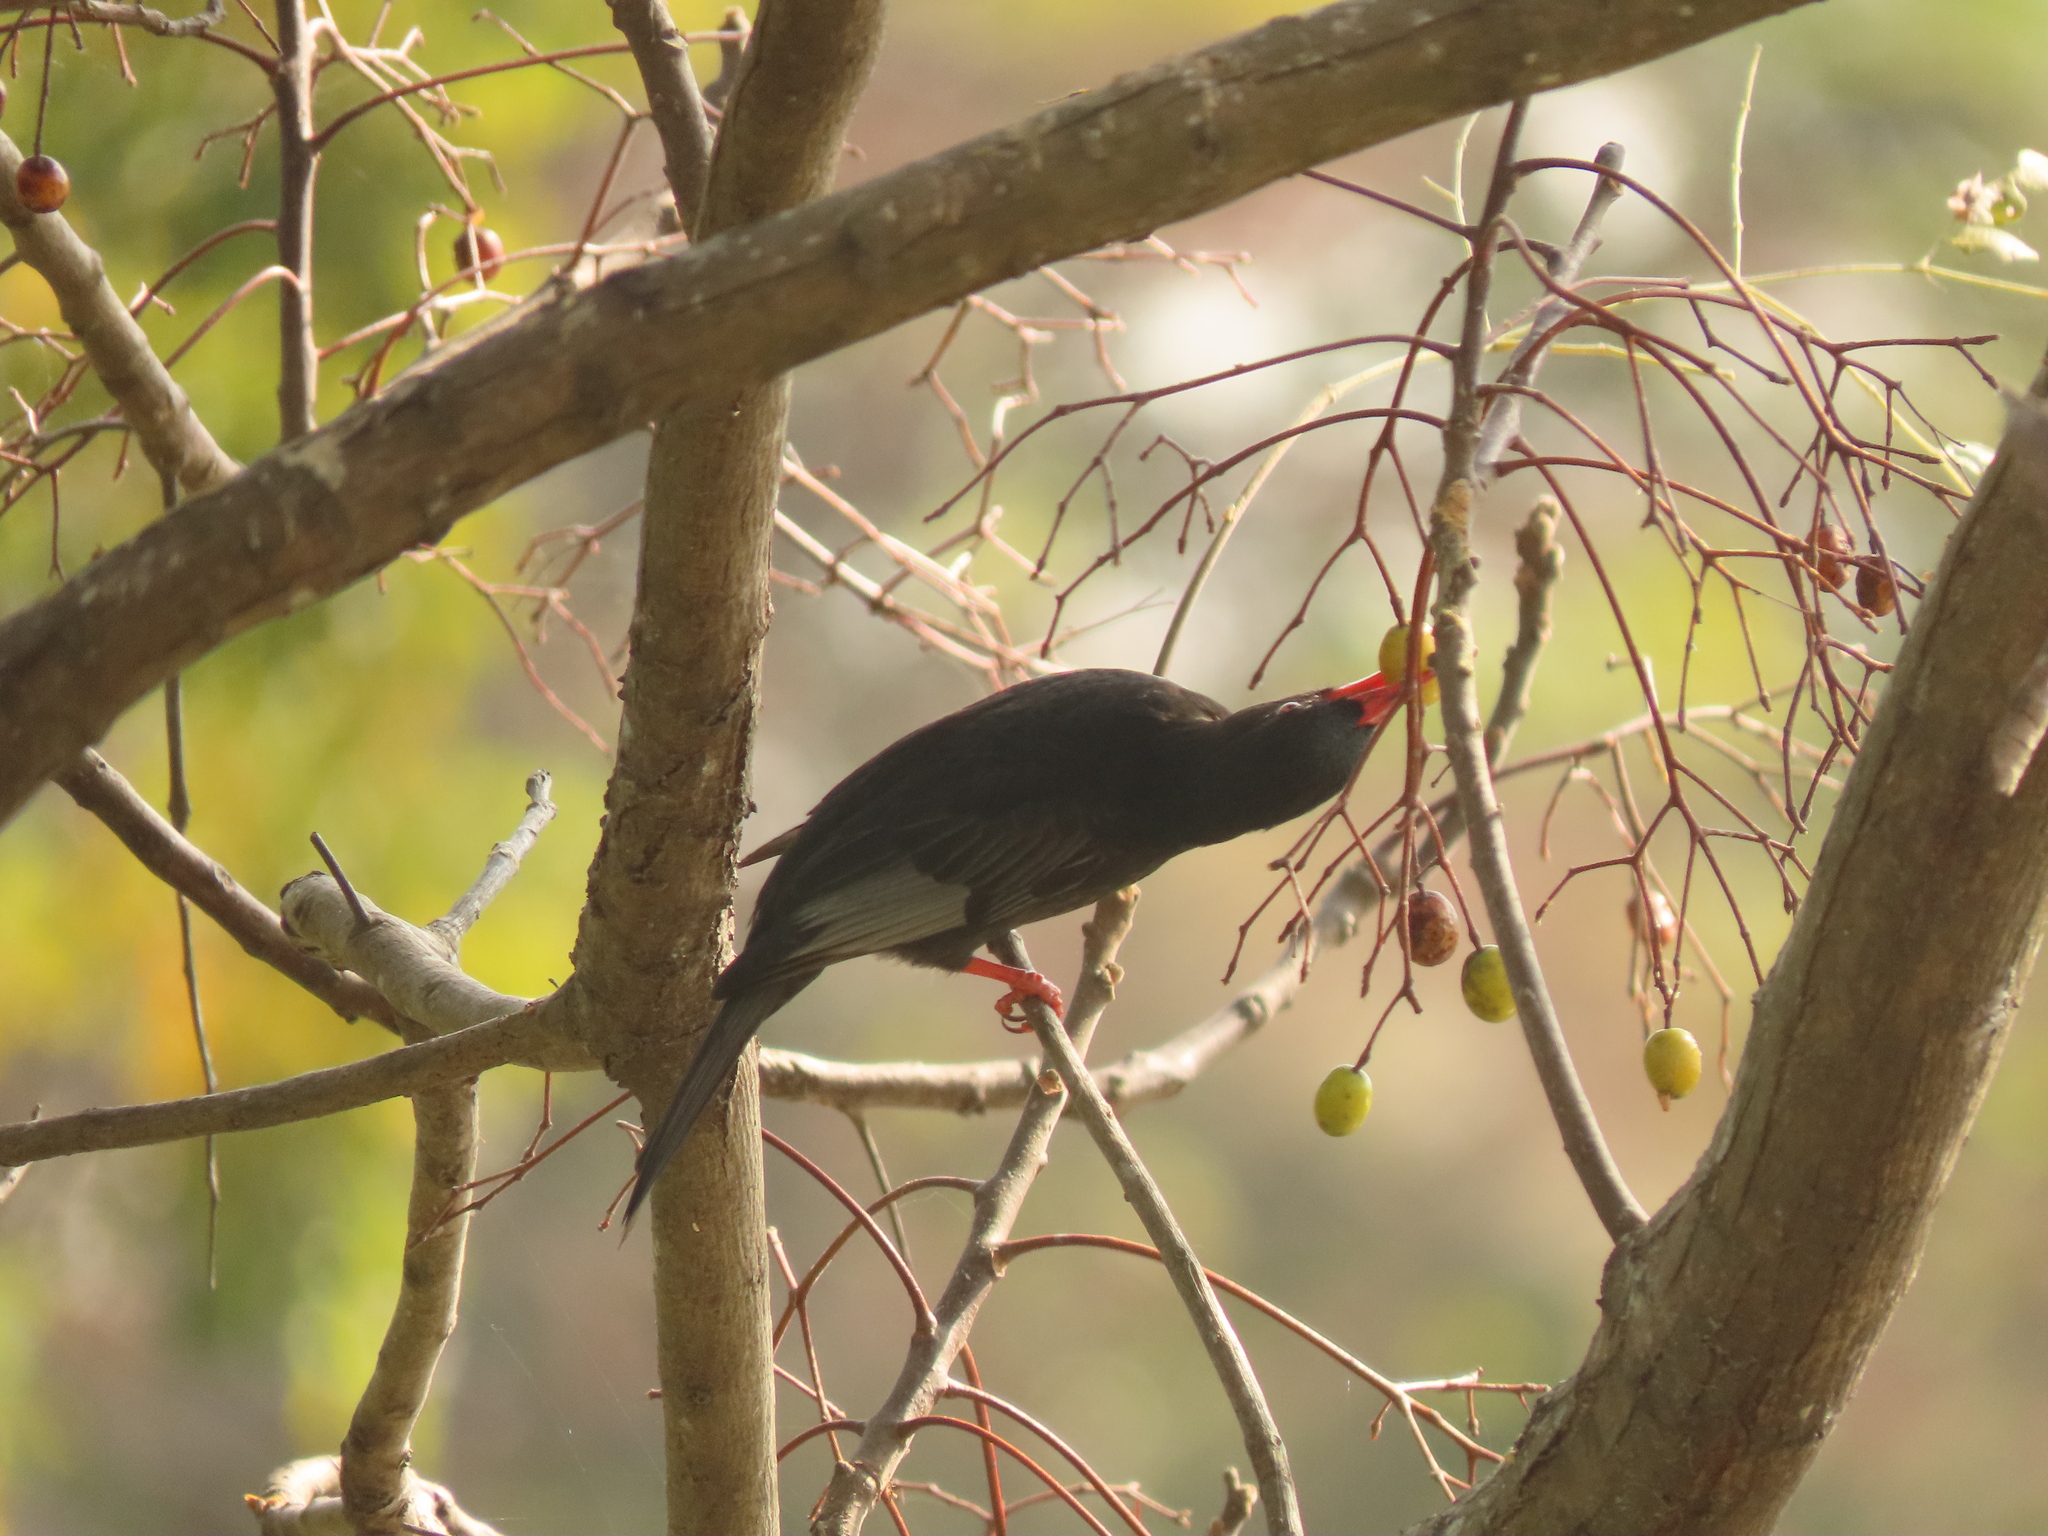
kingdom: Animalia
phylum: Chordata
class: Aves
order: Passeriformes
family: Pycnonotidae
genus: Hypsipetes
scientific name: Hypsipetes leucocephalus
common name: Black bulbul
